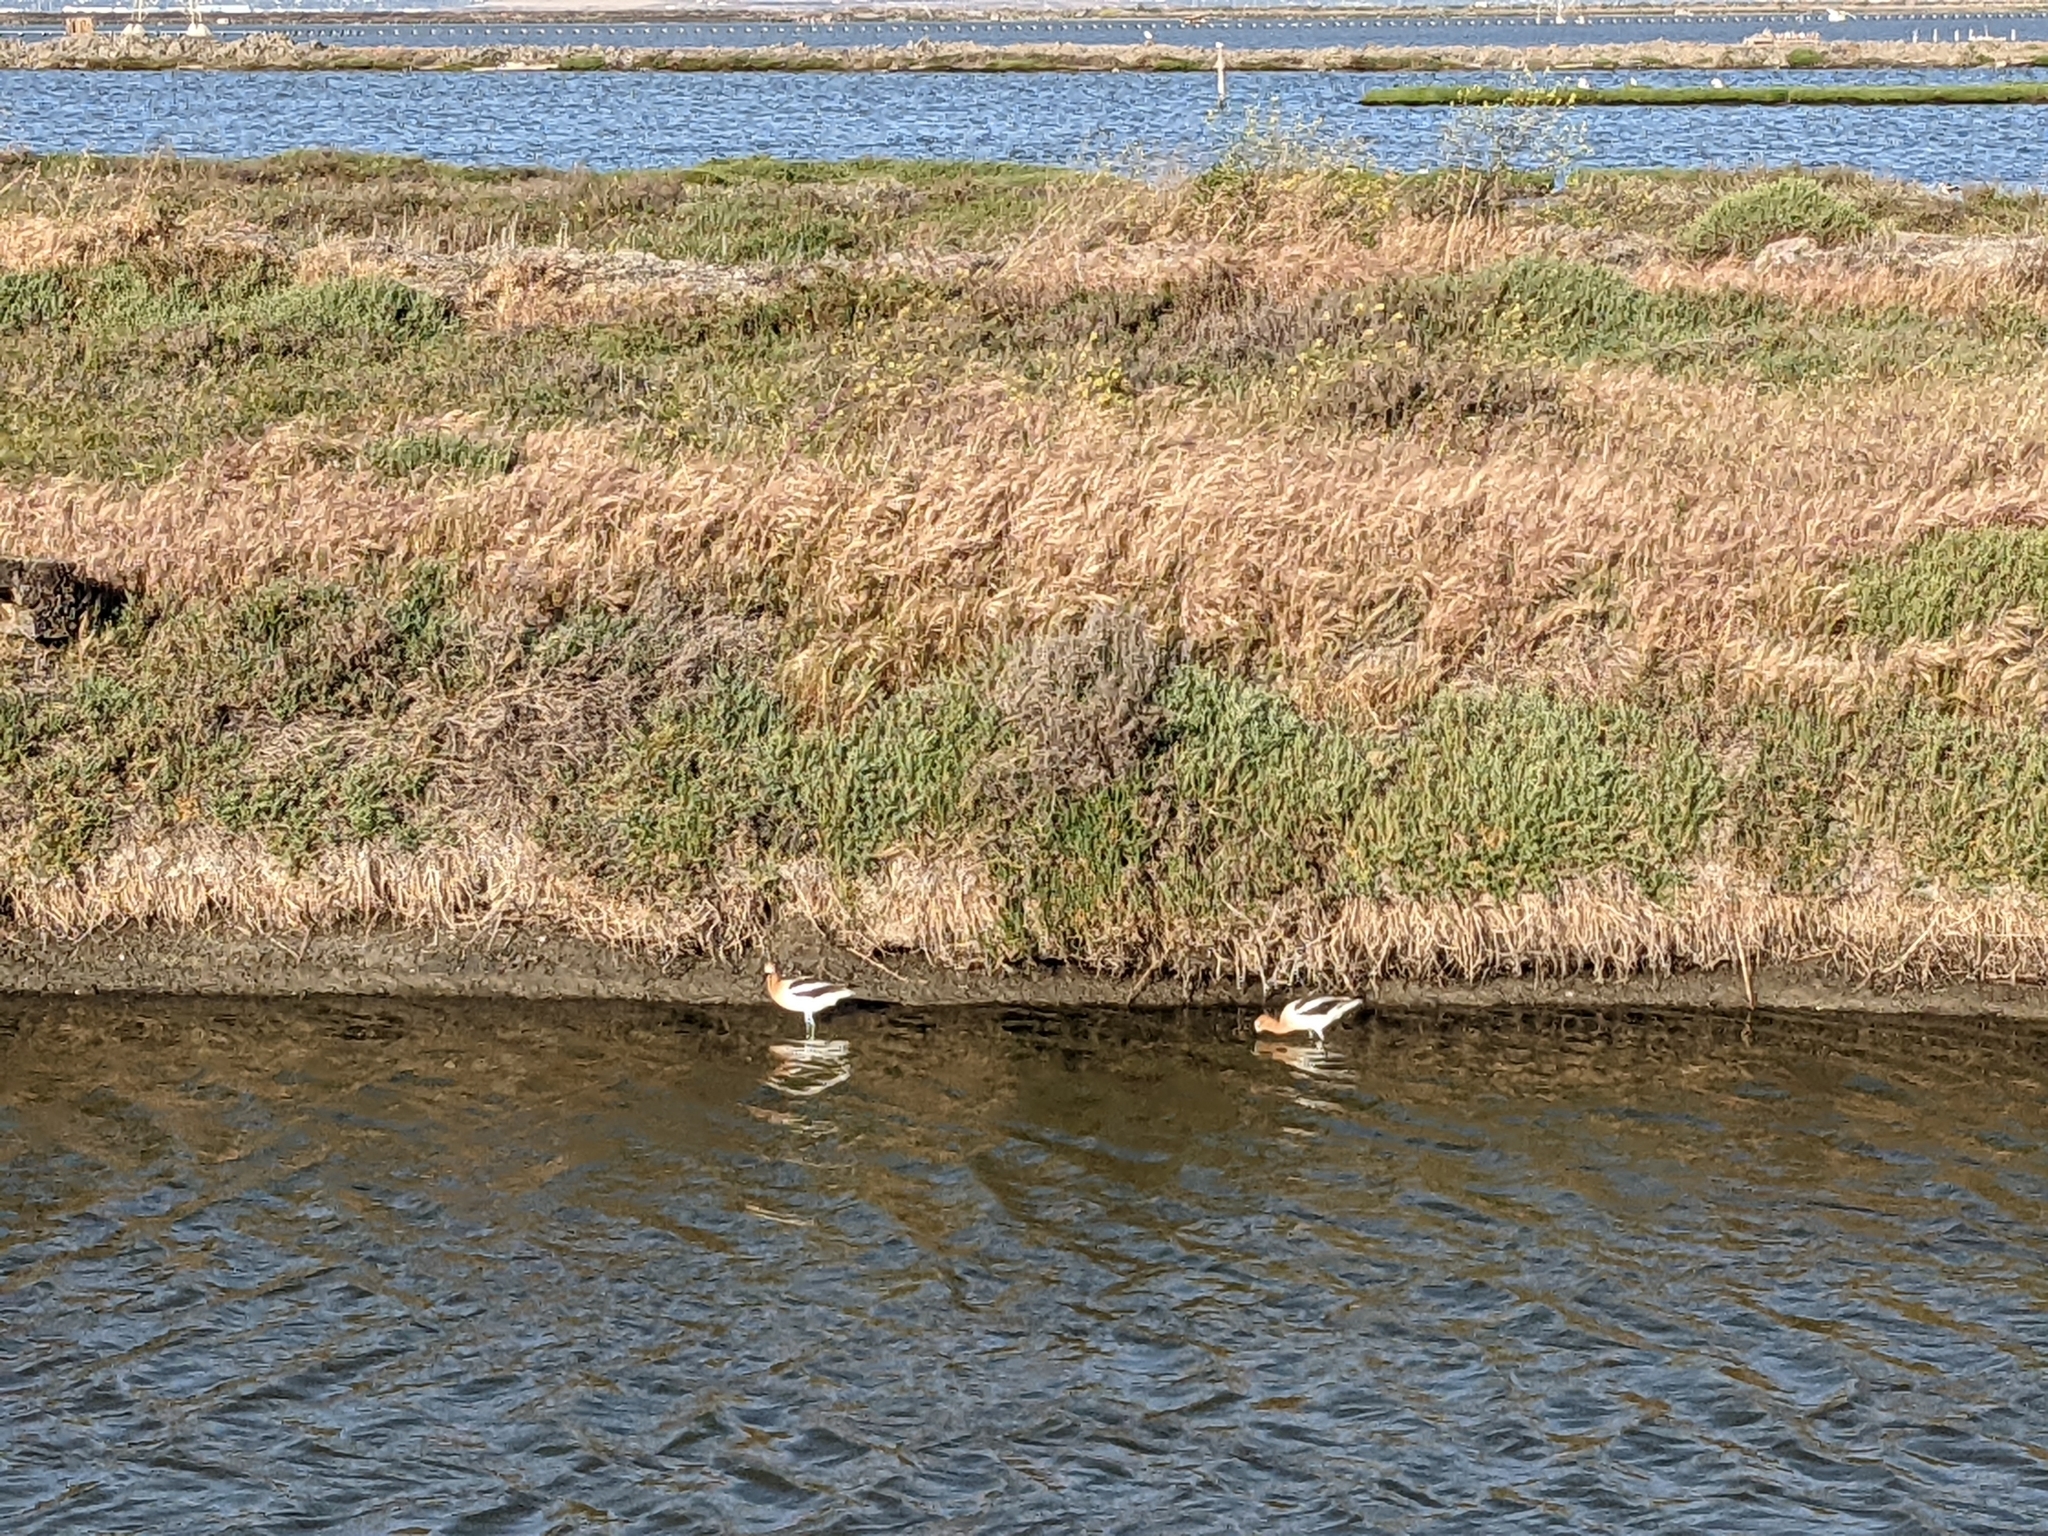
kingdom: Animalia
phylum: Chordata
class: Aves
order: Charadriiformes
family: Recurvirostridae
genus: Recurvirostra
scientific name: Recurvirostra americana
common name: American avocet
